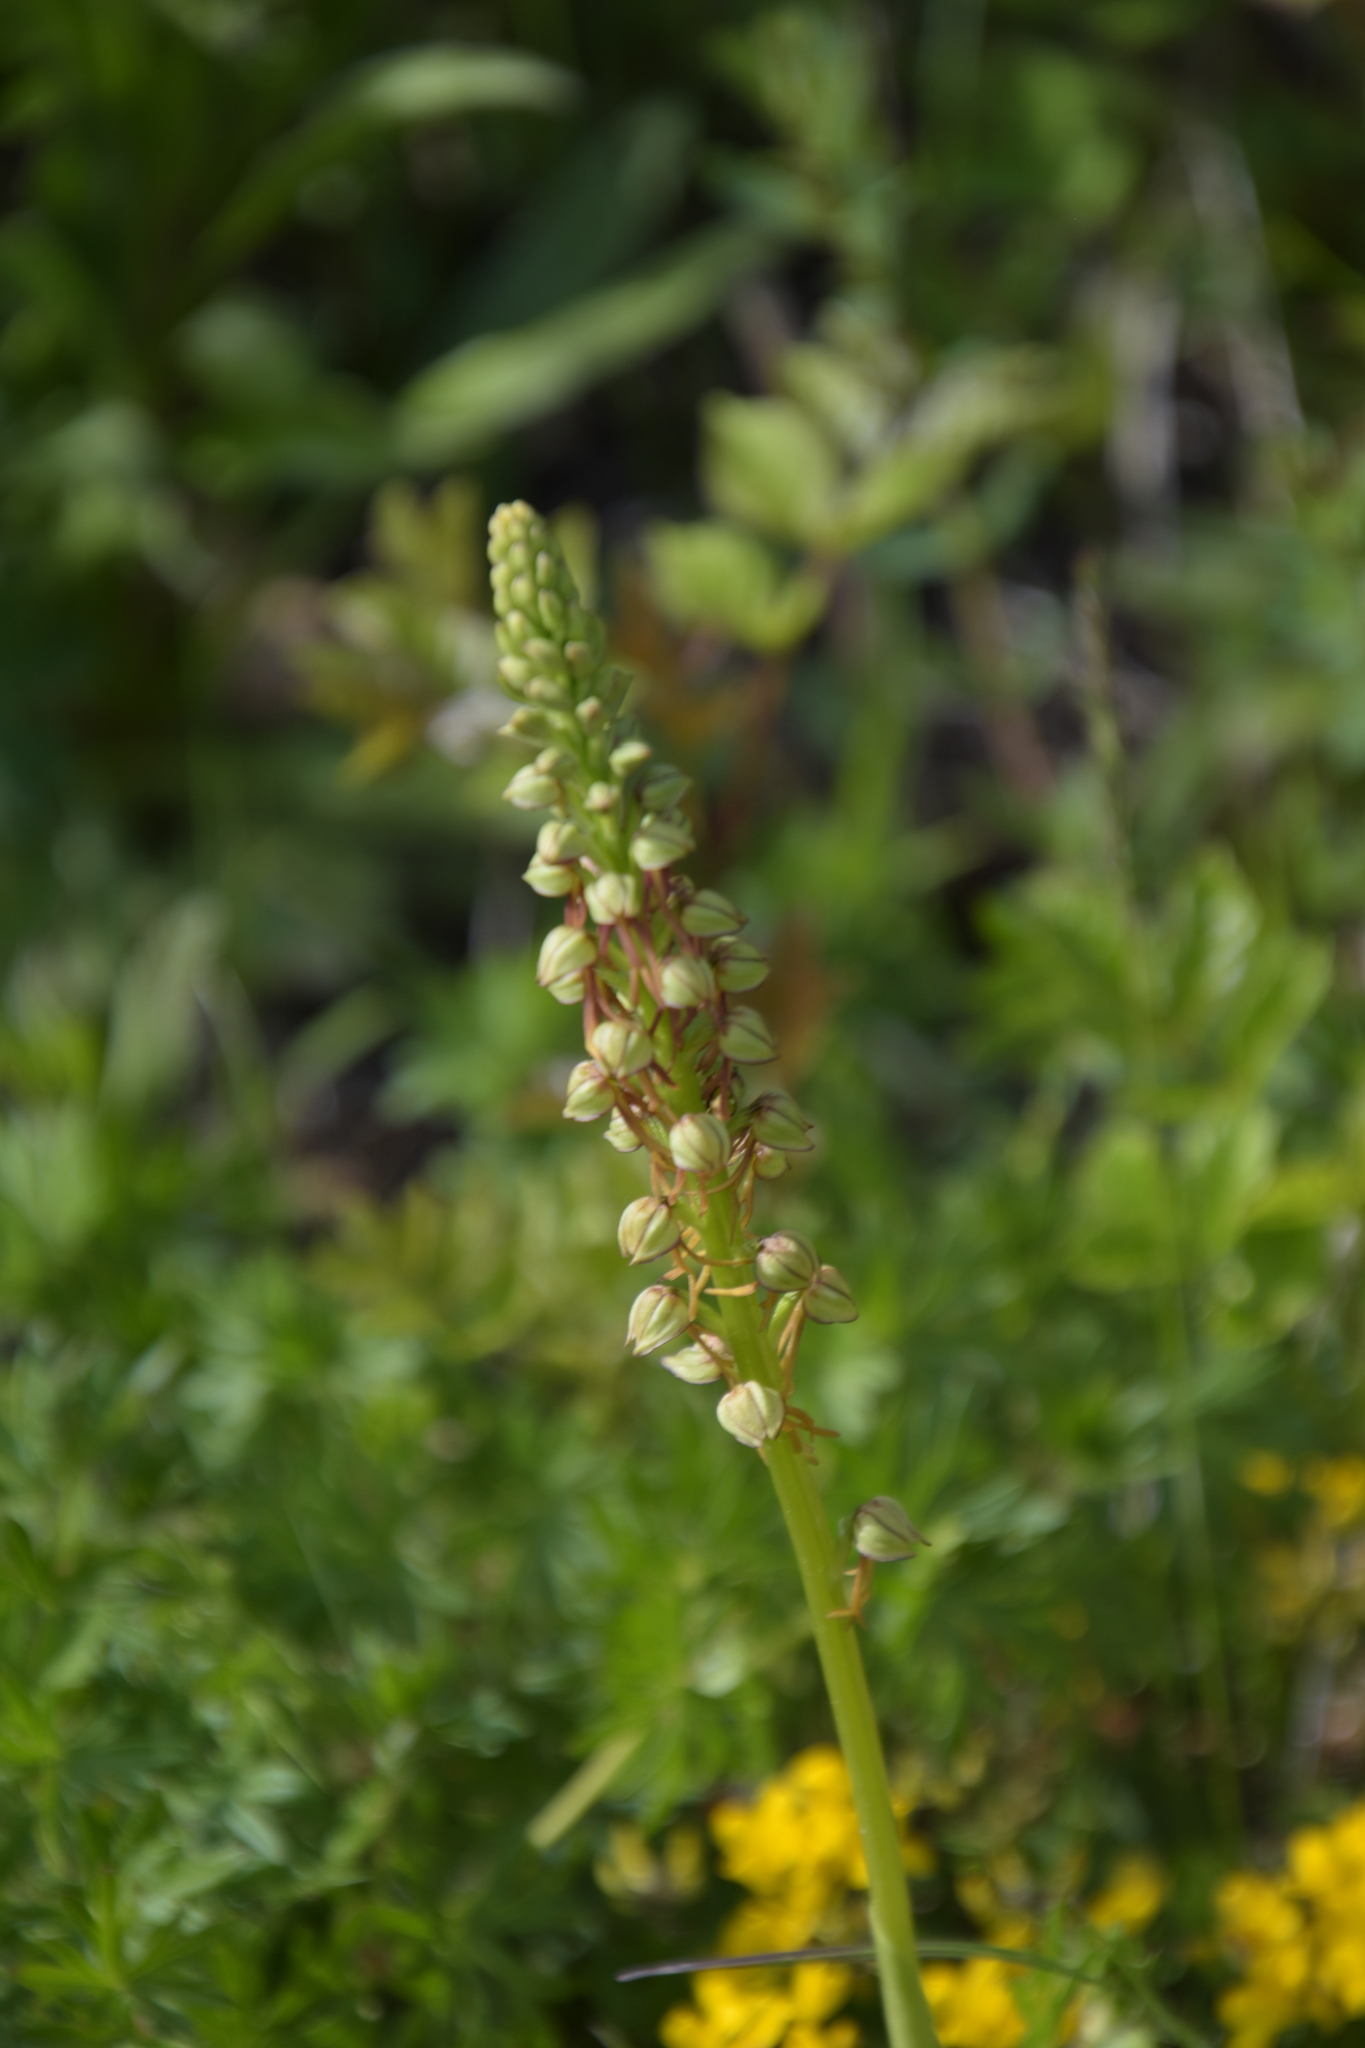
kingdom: Plantae
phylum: Tracheophyta
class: Liliopsida
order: Asparagales
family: Orchidaceae
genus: Orchis
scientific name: Orchis anthropophora
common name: Man orchid
